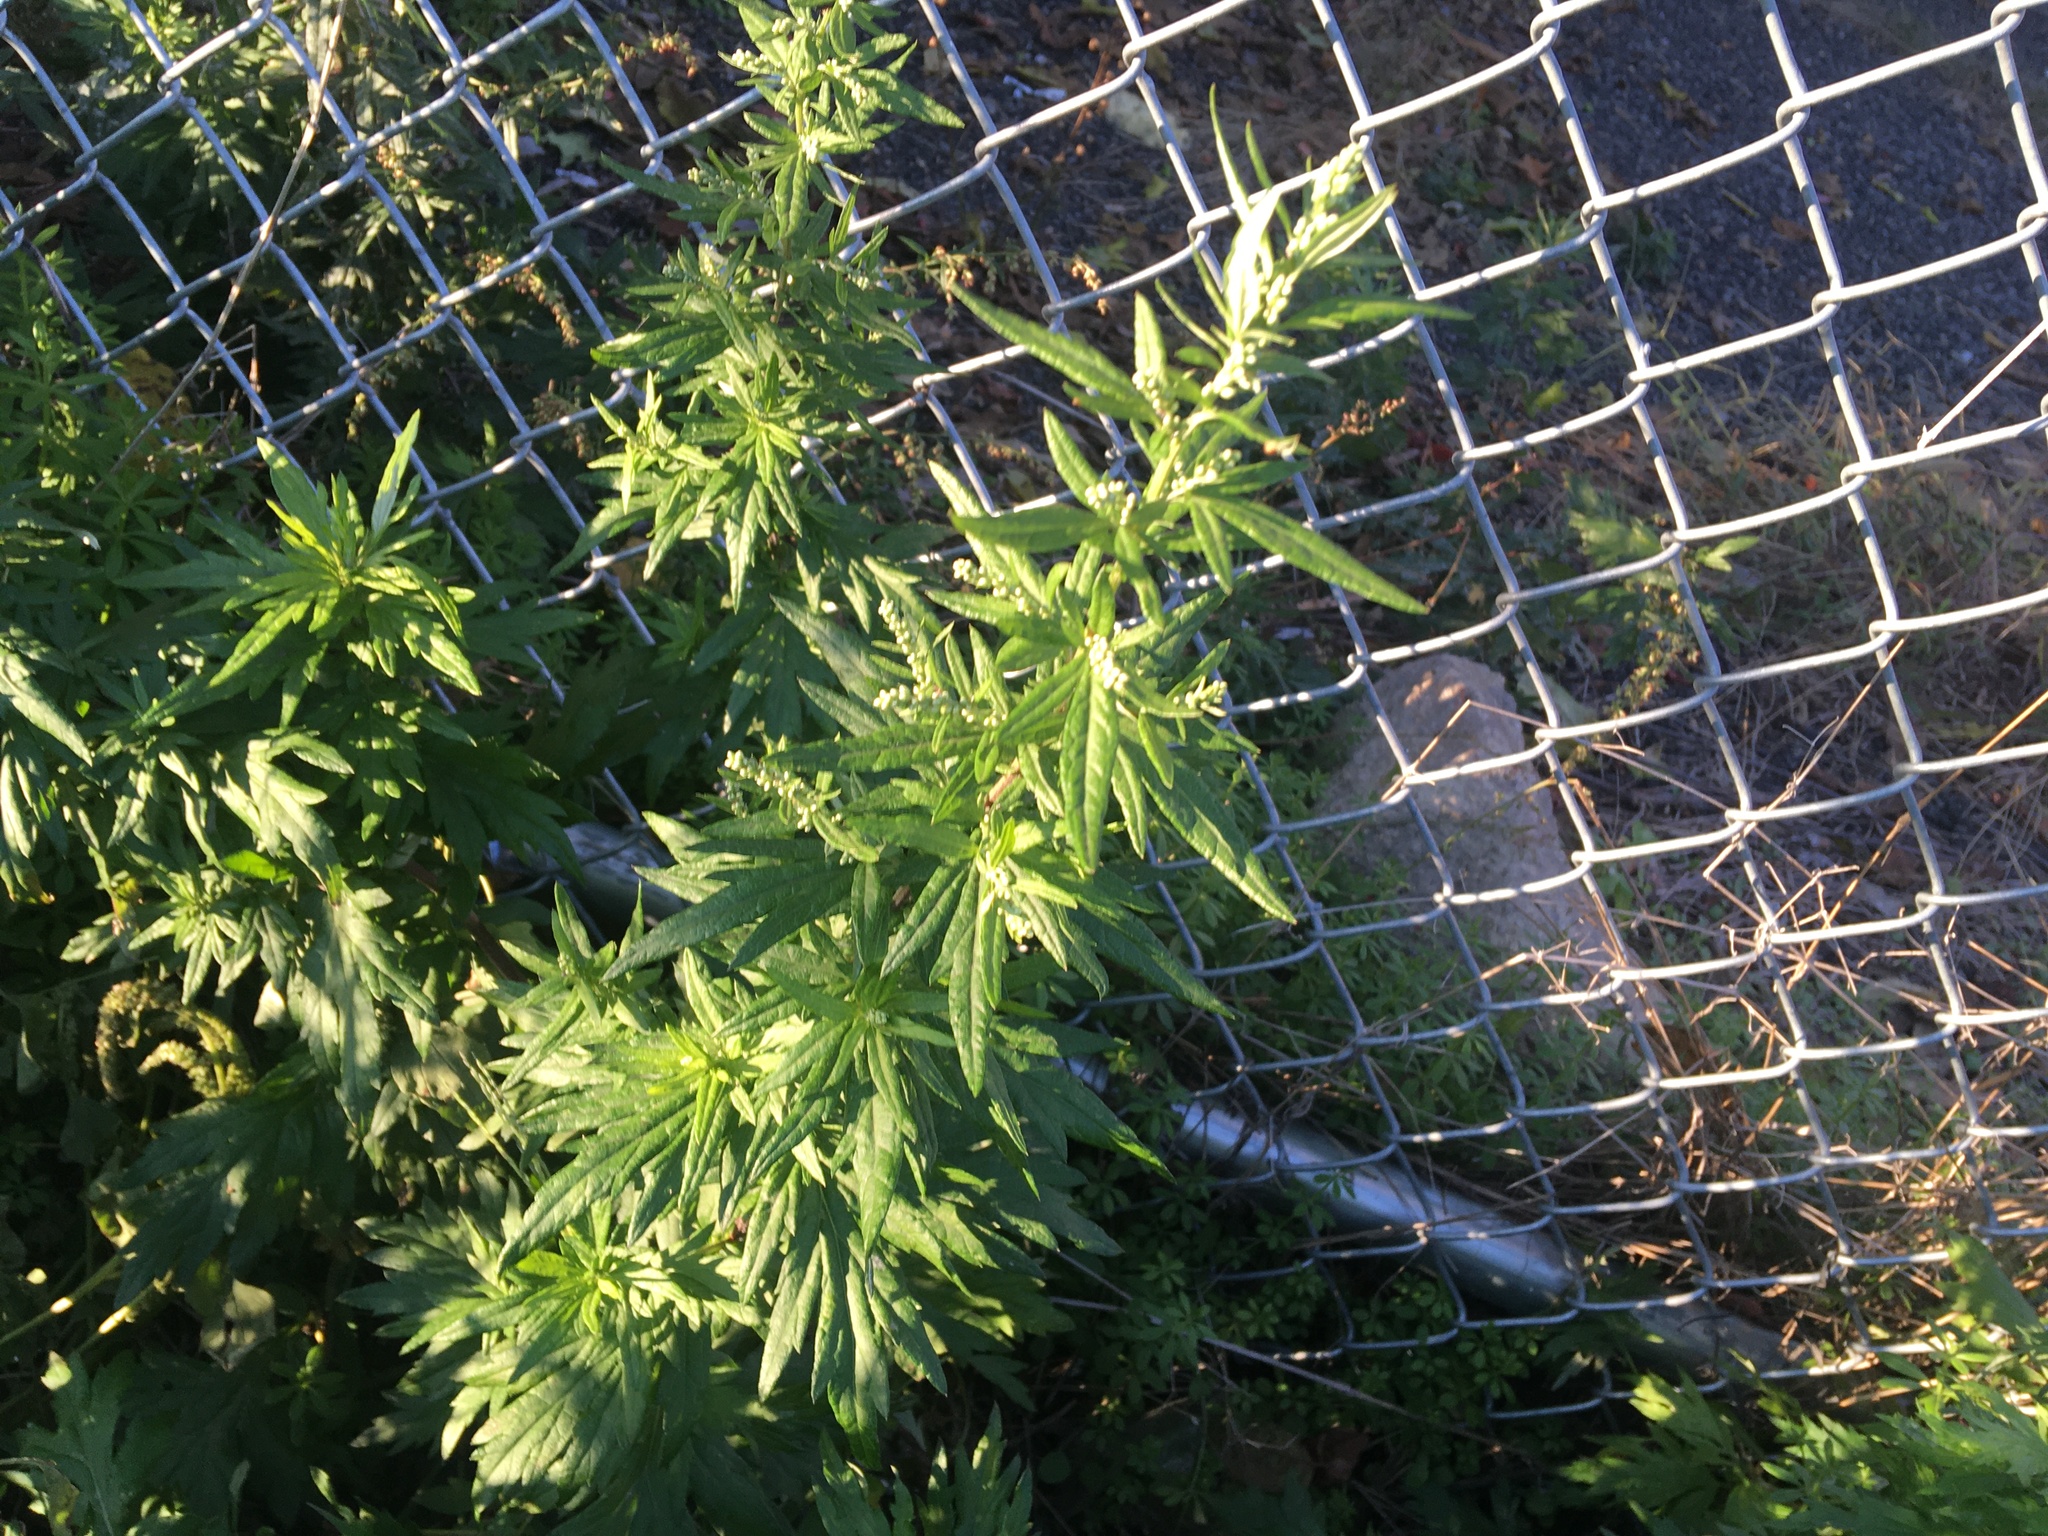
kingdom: Plantae
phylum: Tracheophyta
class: Magnoliopsida
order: Asterales
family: Asteraceae
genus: Artemisia
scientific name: Artemisia vulgaris
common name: Mugwort
